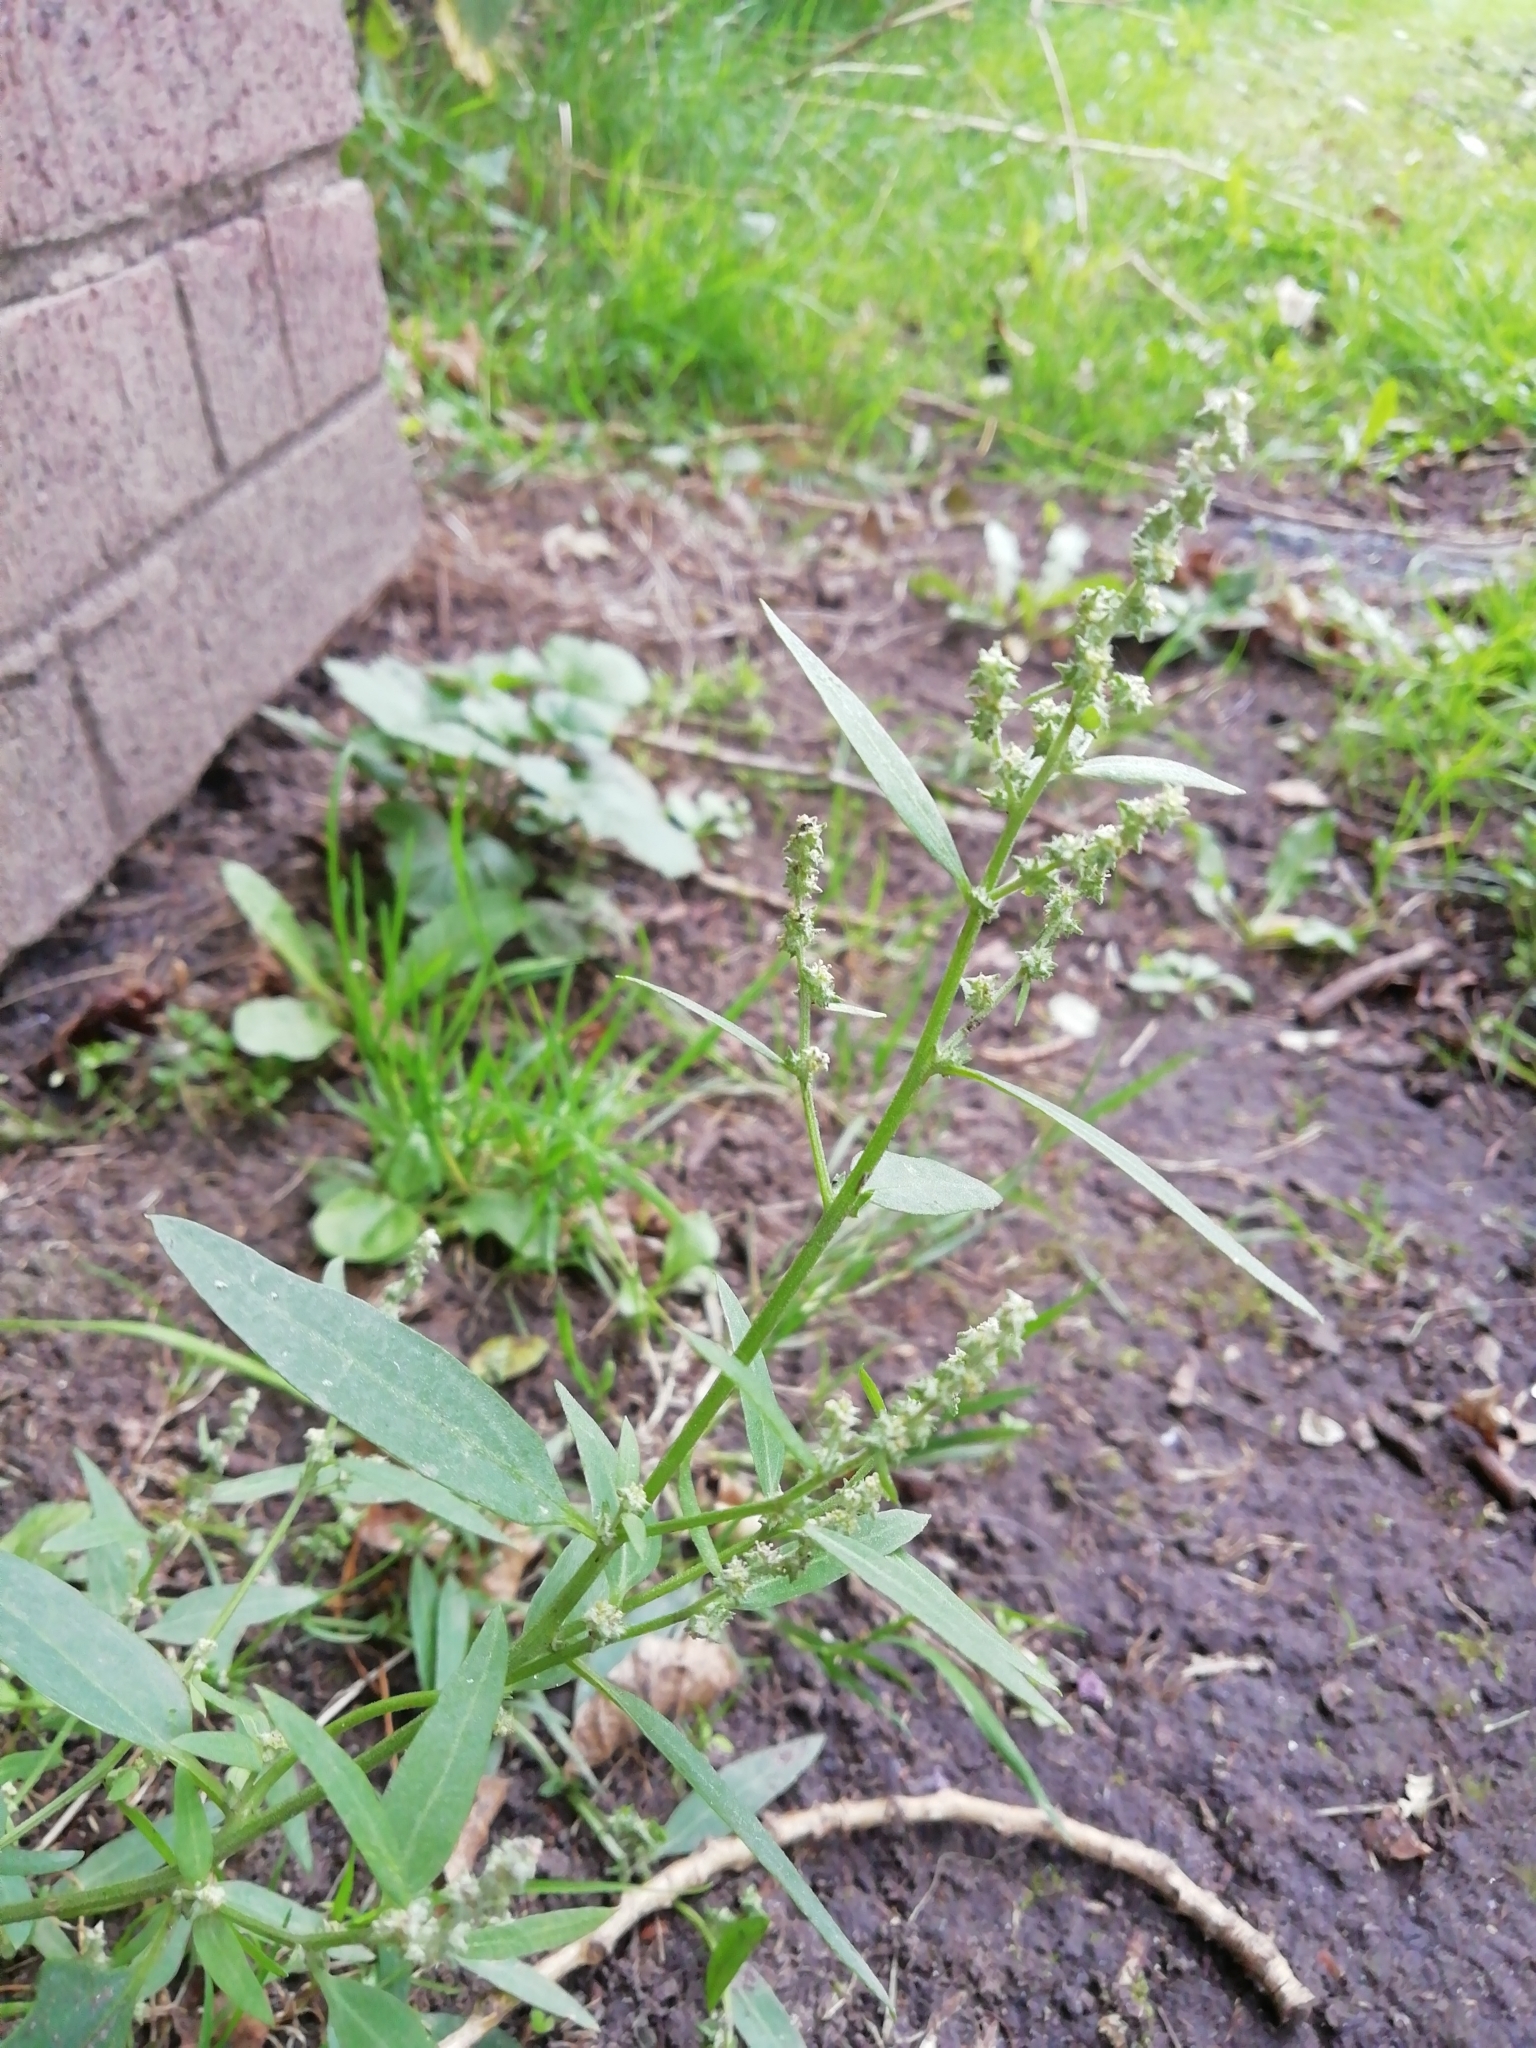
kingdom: Plantae
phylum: Tracheophyta
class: Magnoliopsida
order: Caryophyllales
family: Amaranthaceae
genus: Atriplex
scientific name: Atriplex patula
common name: Common orache
